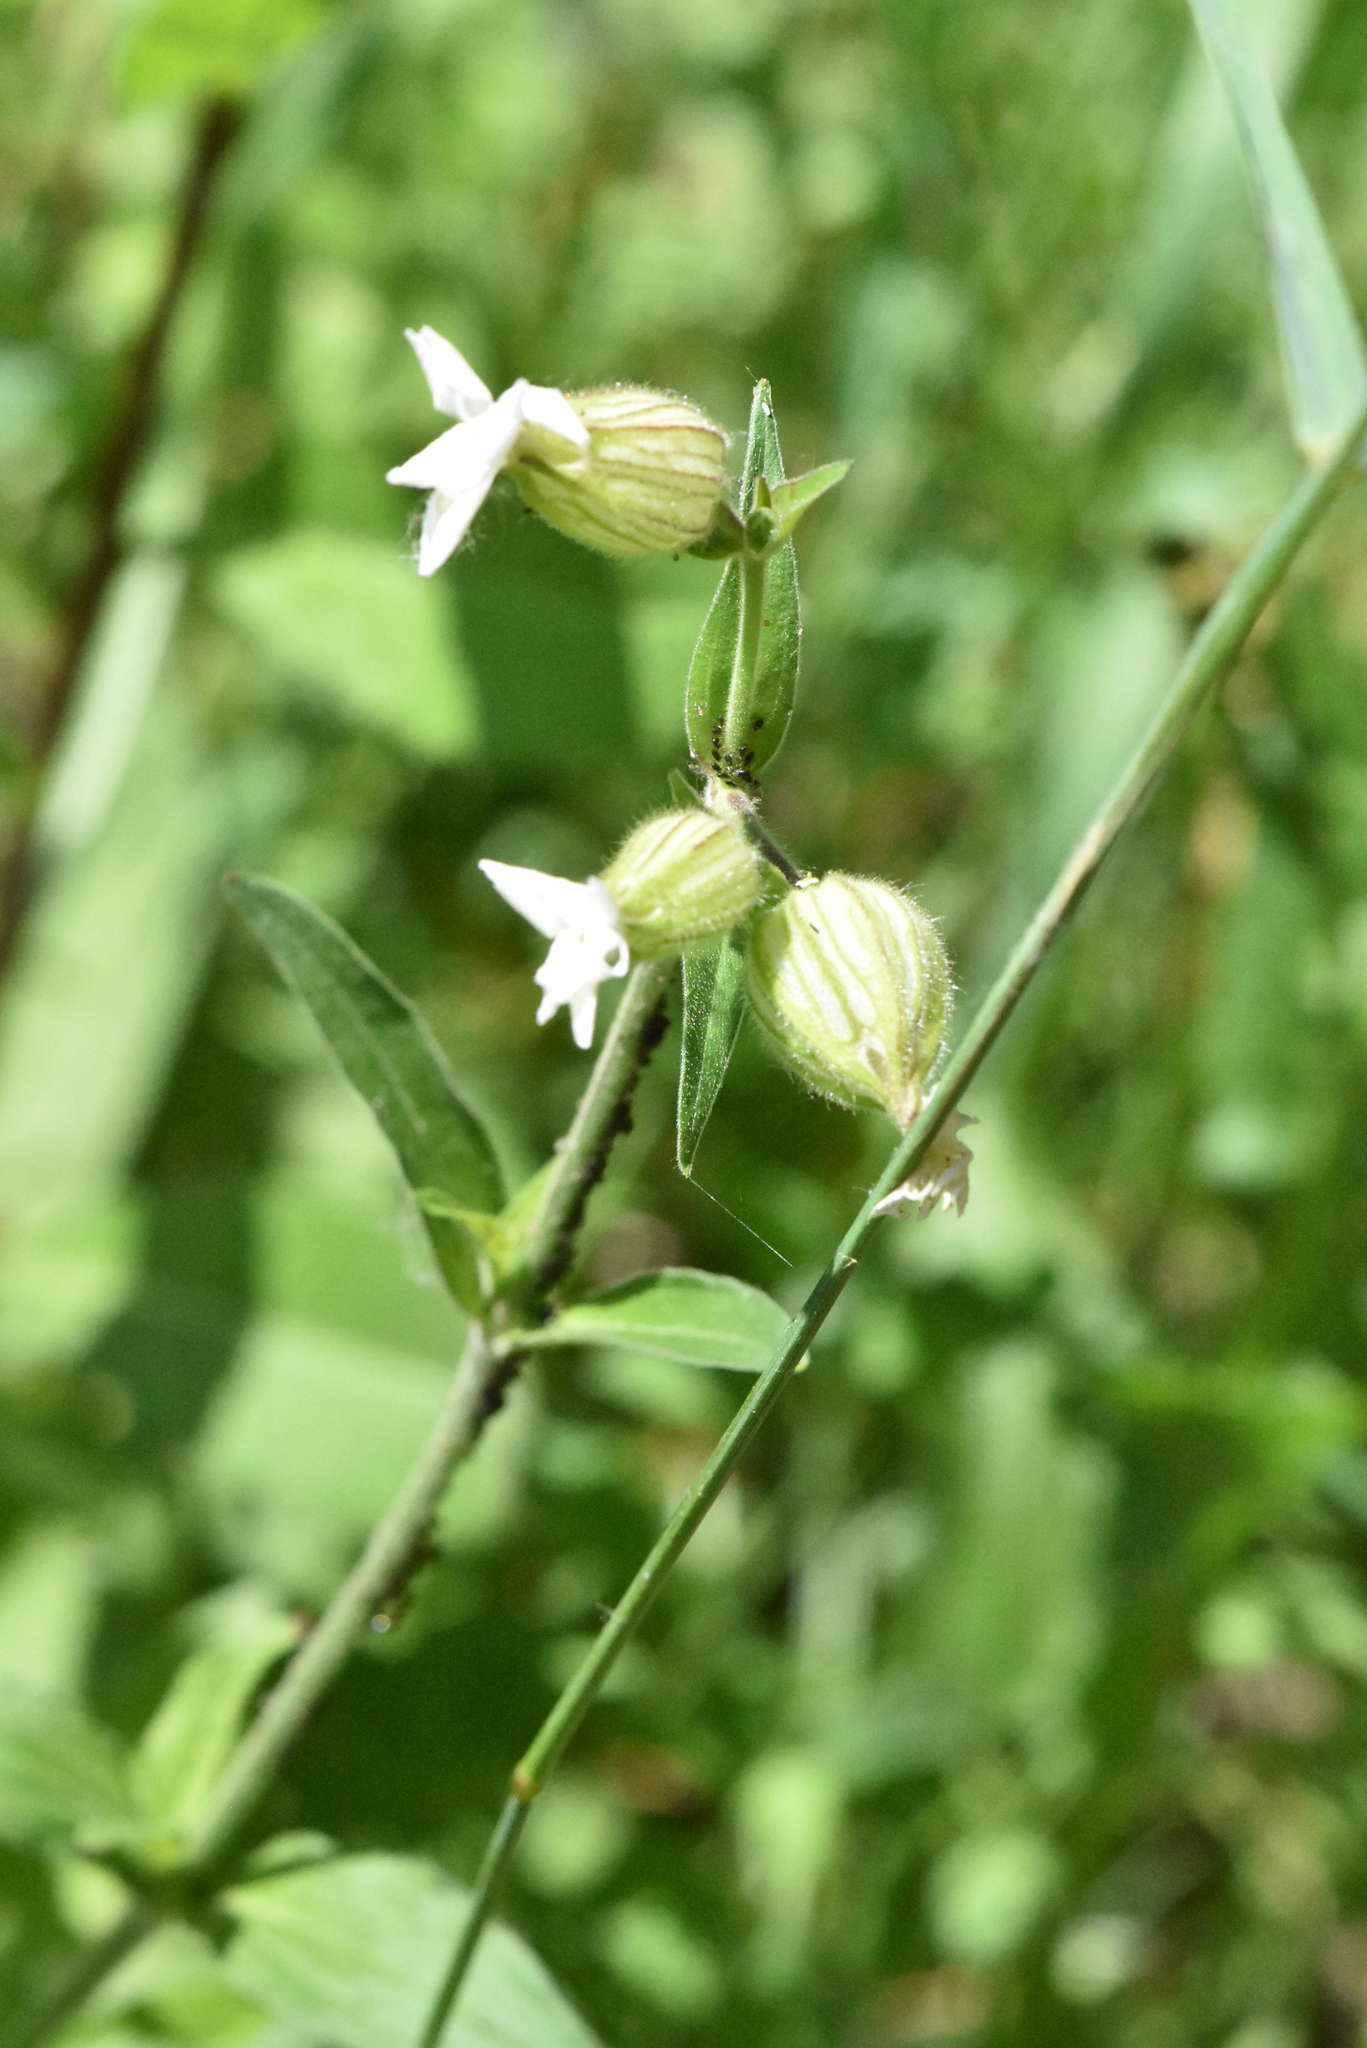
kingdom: Plantae
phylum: Tracheophyta
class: Magnoliopsida
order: Caryophyllales
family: Caryophyllaceae
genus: Silene
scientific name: Silene latifolia
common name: White campion
